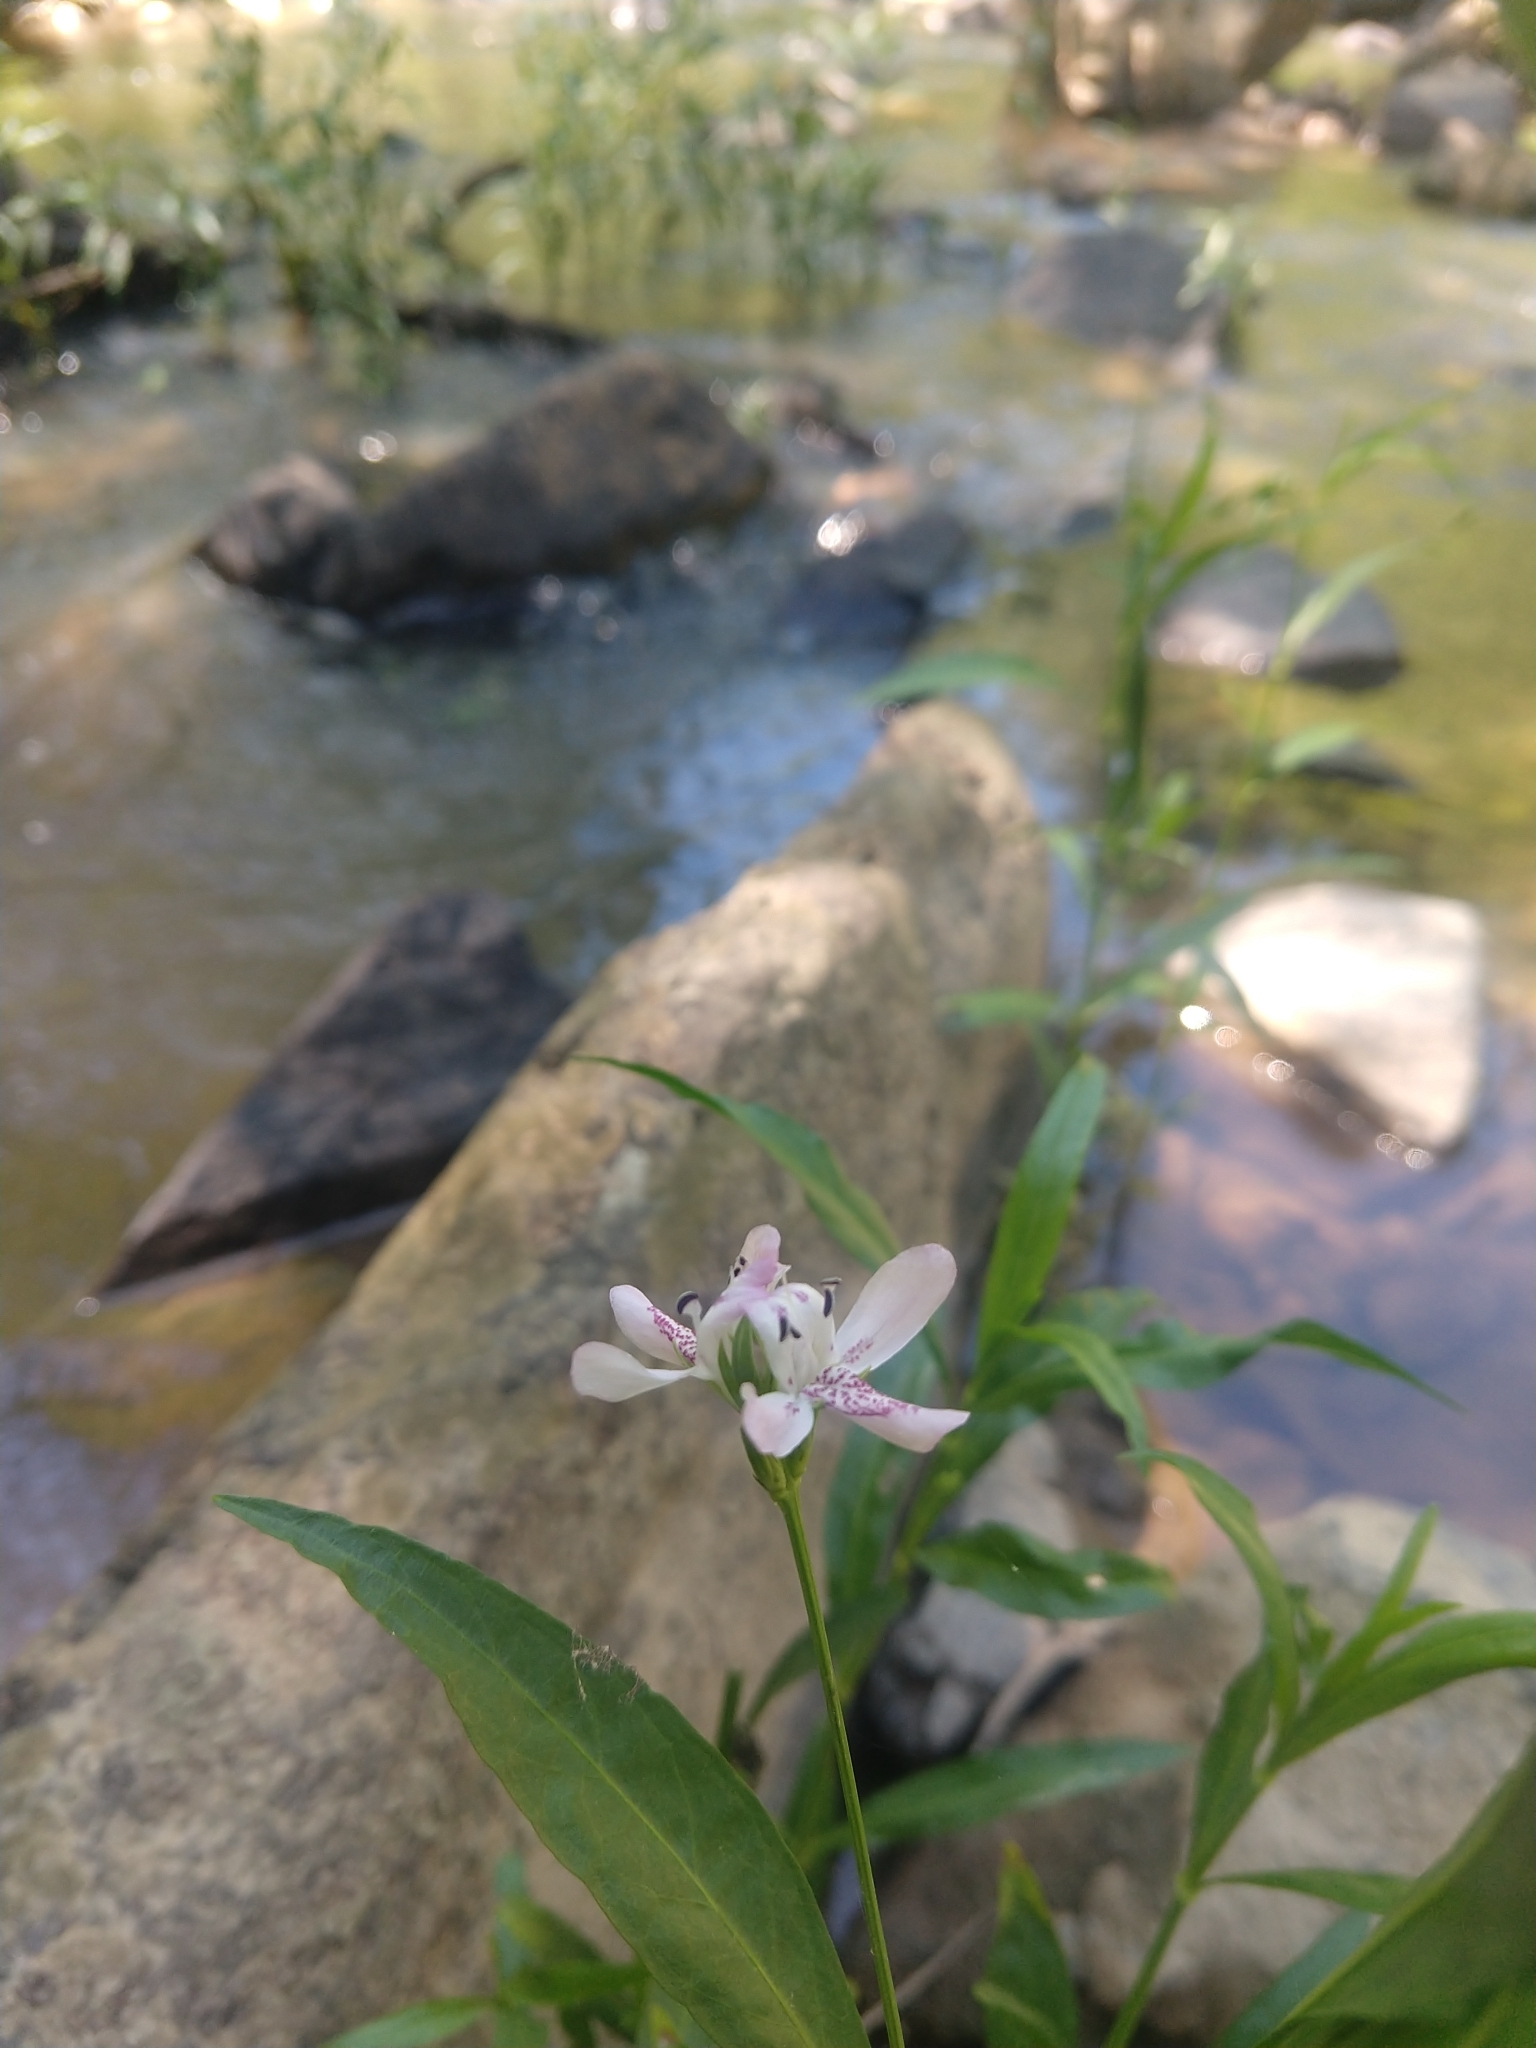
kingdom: Plantae
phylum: Tracheophyta
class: Magnoliopsida
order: Lamiales
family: Acanthaceae
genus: Dianthera
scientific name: Dianthera americana
